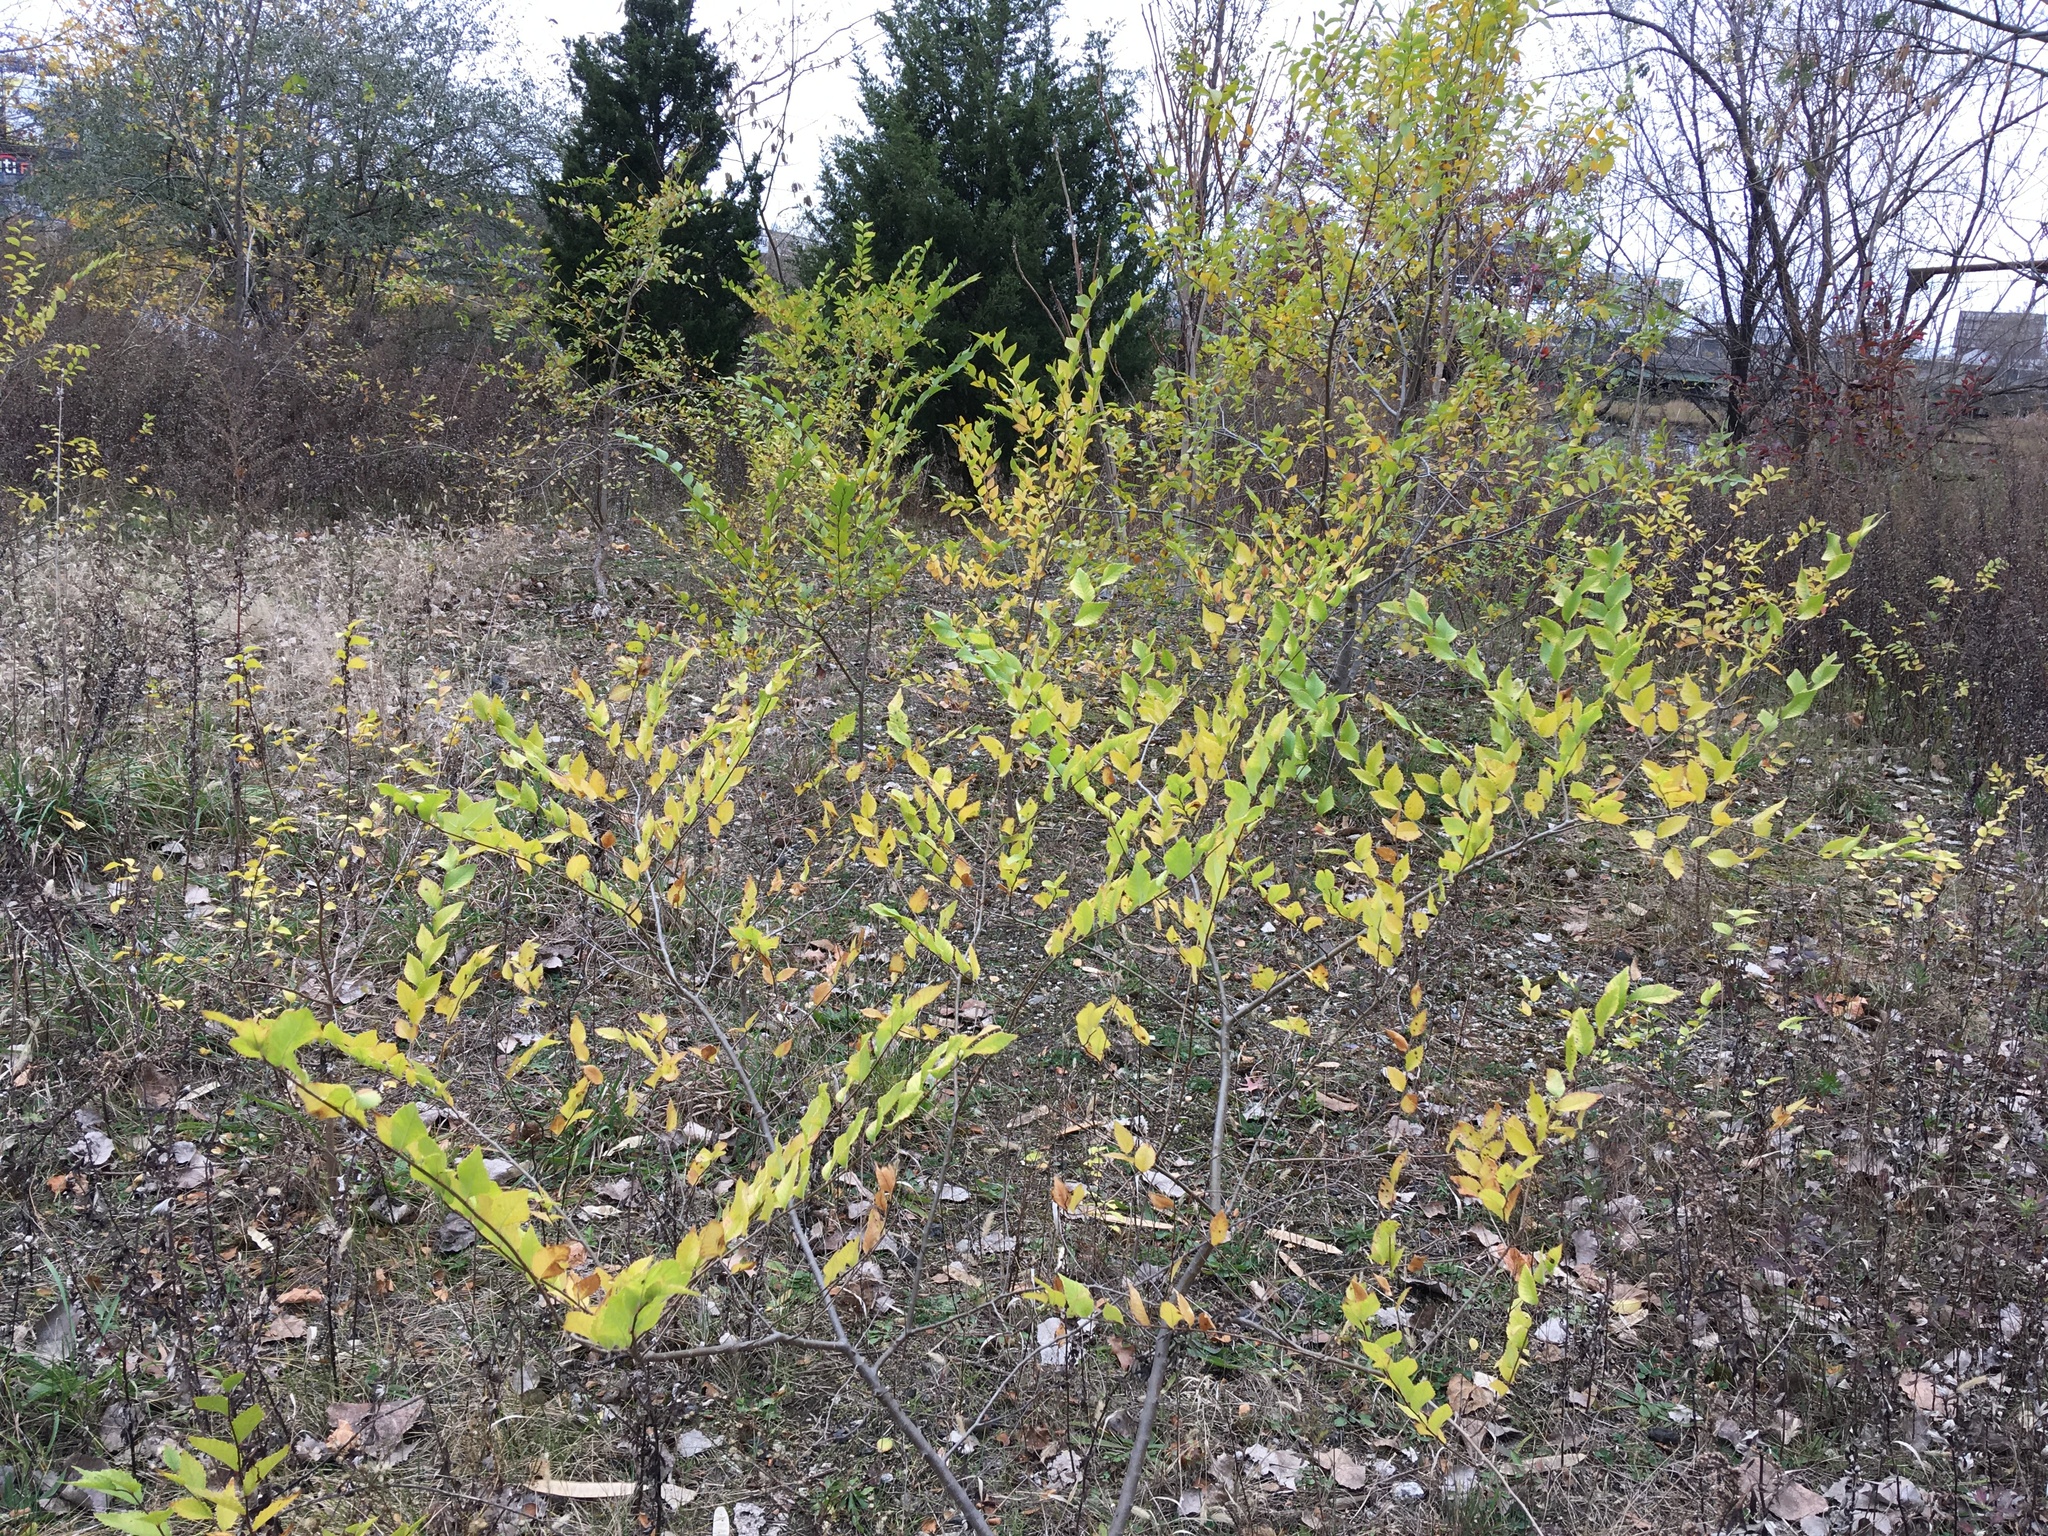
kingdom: Plantae
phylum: Tracheophyta
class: Magnoliopsida
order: Rosales
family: Ulmaceae
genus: Ulmus
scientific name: Ulmus pumila
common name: Siberian elm
